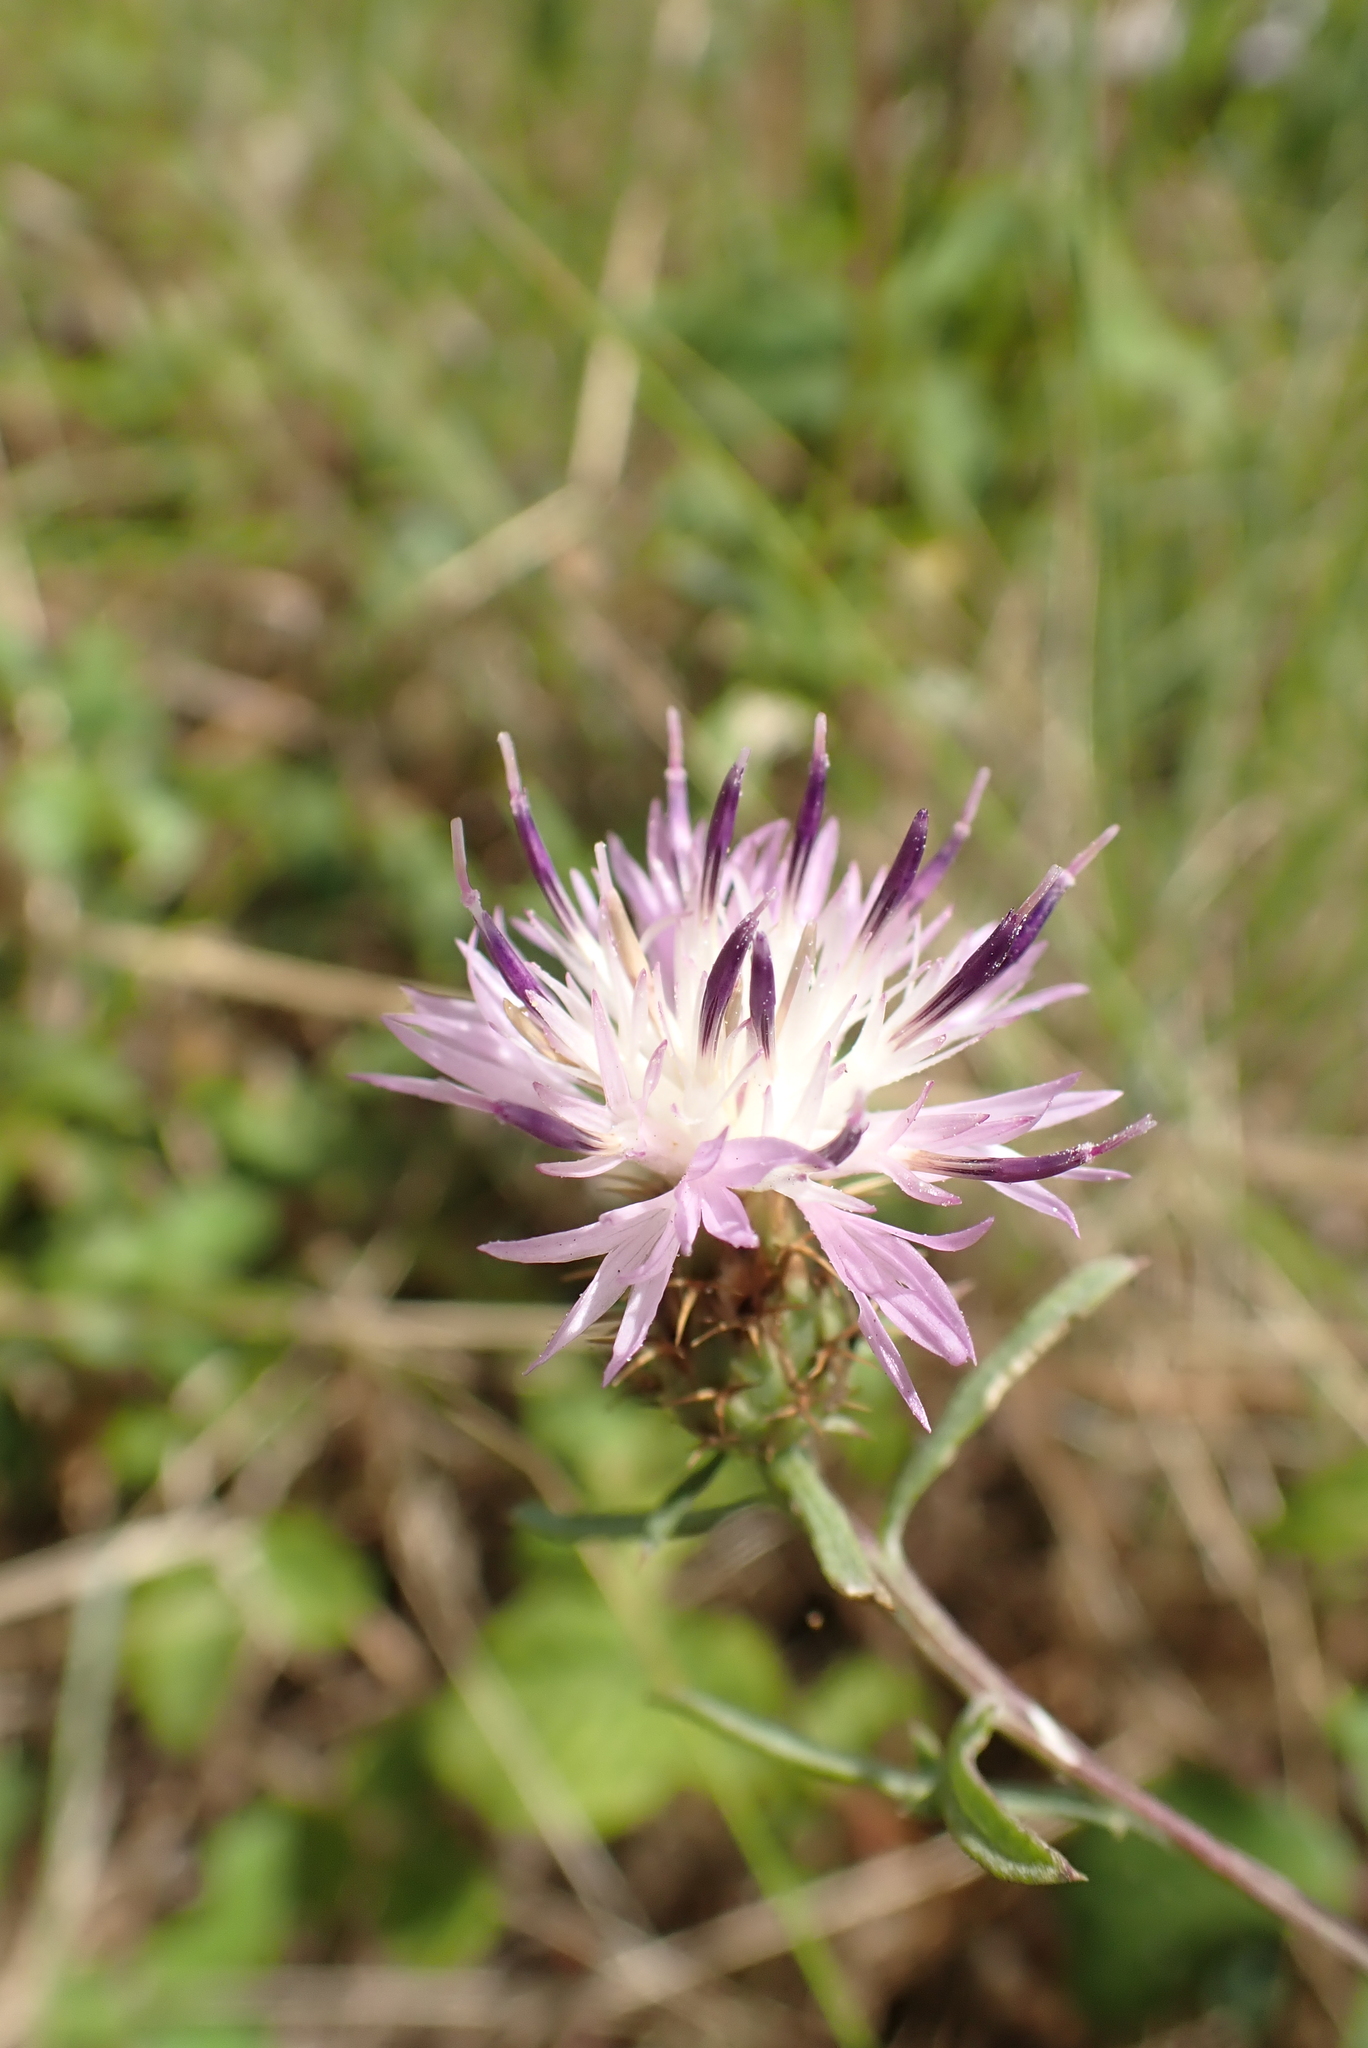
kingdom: Plantae
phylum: Tracheophyta
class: Magnoliopsida
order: Asterales
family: Asteraceae
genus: Centaurea
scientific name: Centaurea aspera
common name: Rough star-thistle
